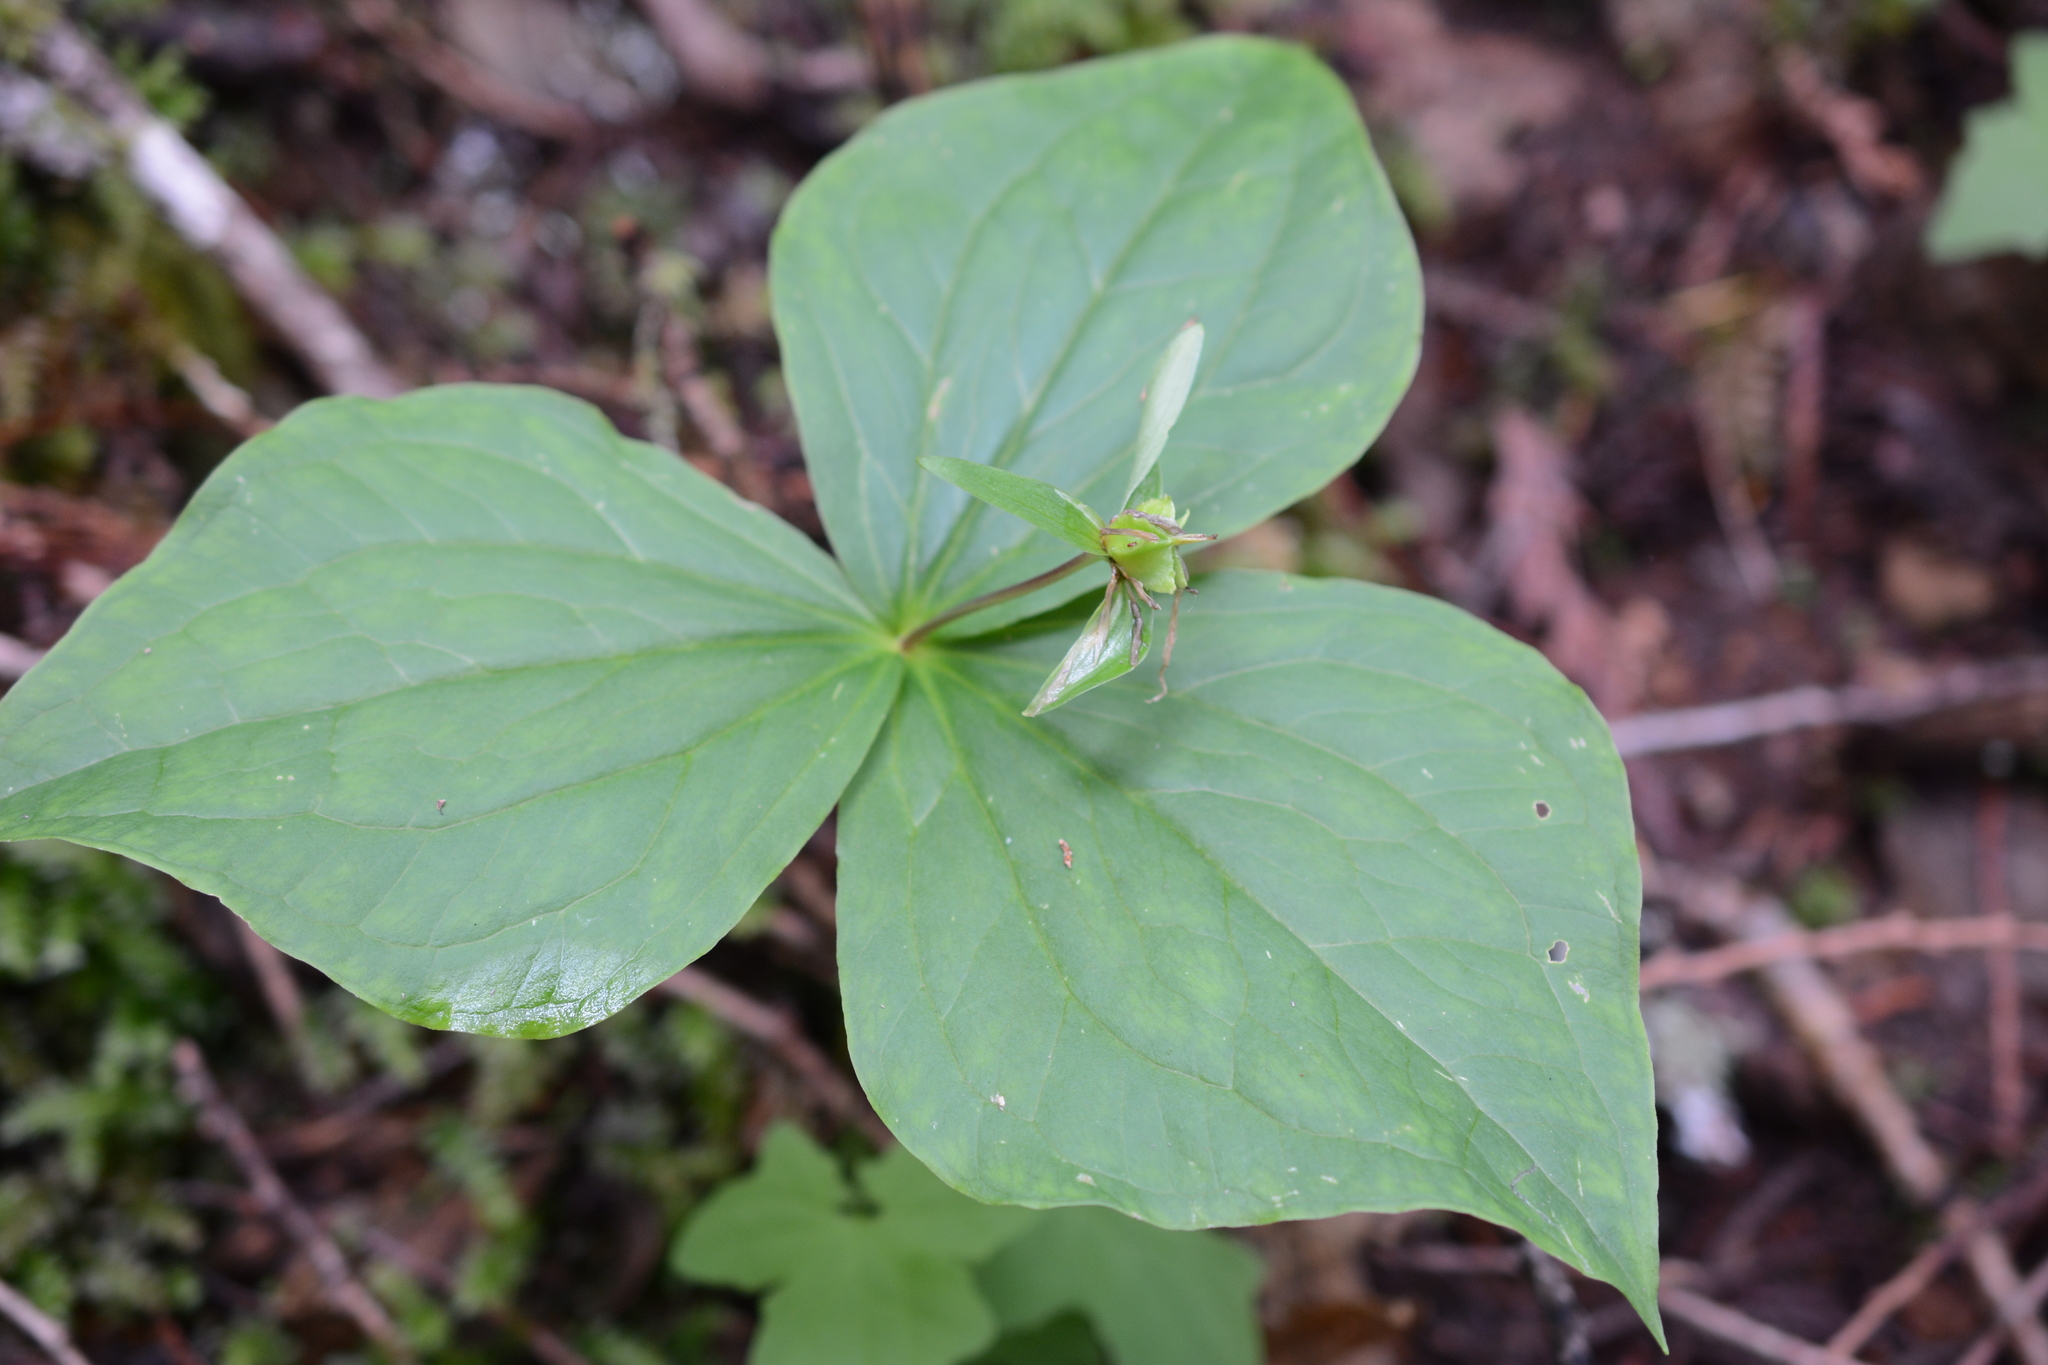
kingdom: Plantae
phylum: Tracheophyta
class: Liliopsida
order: Liliales
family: Melanthiaceae
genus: Trillium
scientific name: Trillium ovatum
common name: Pacific trillium
